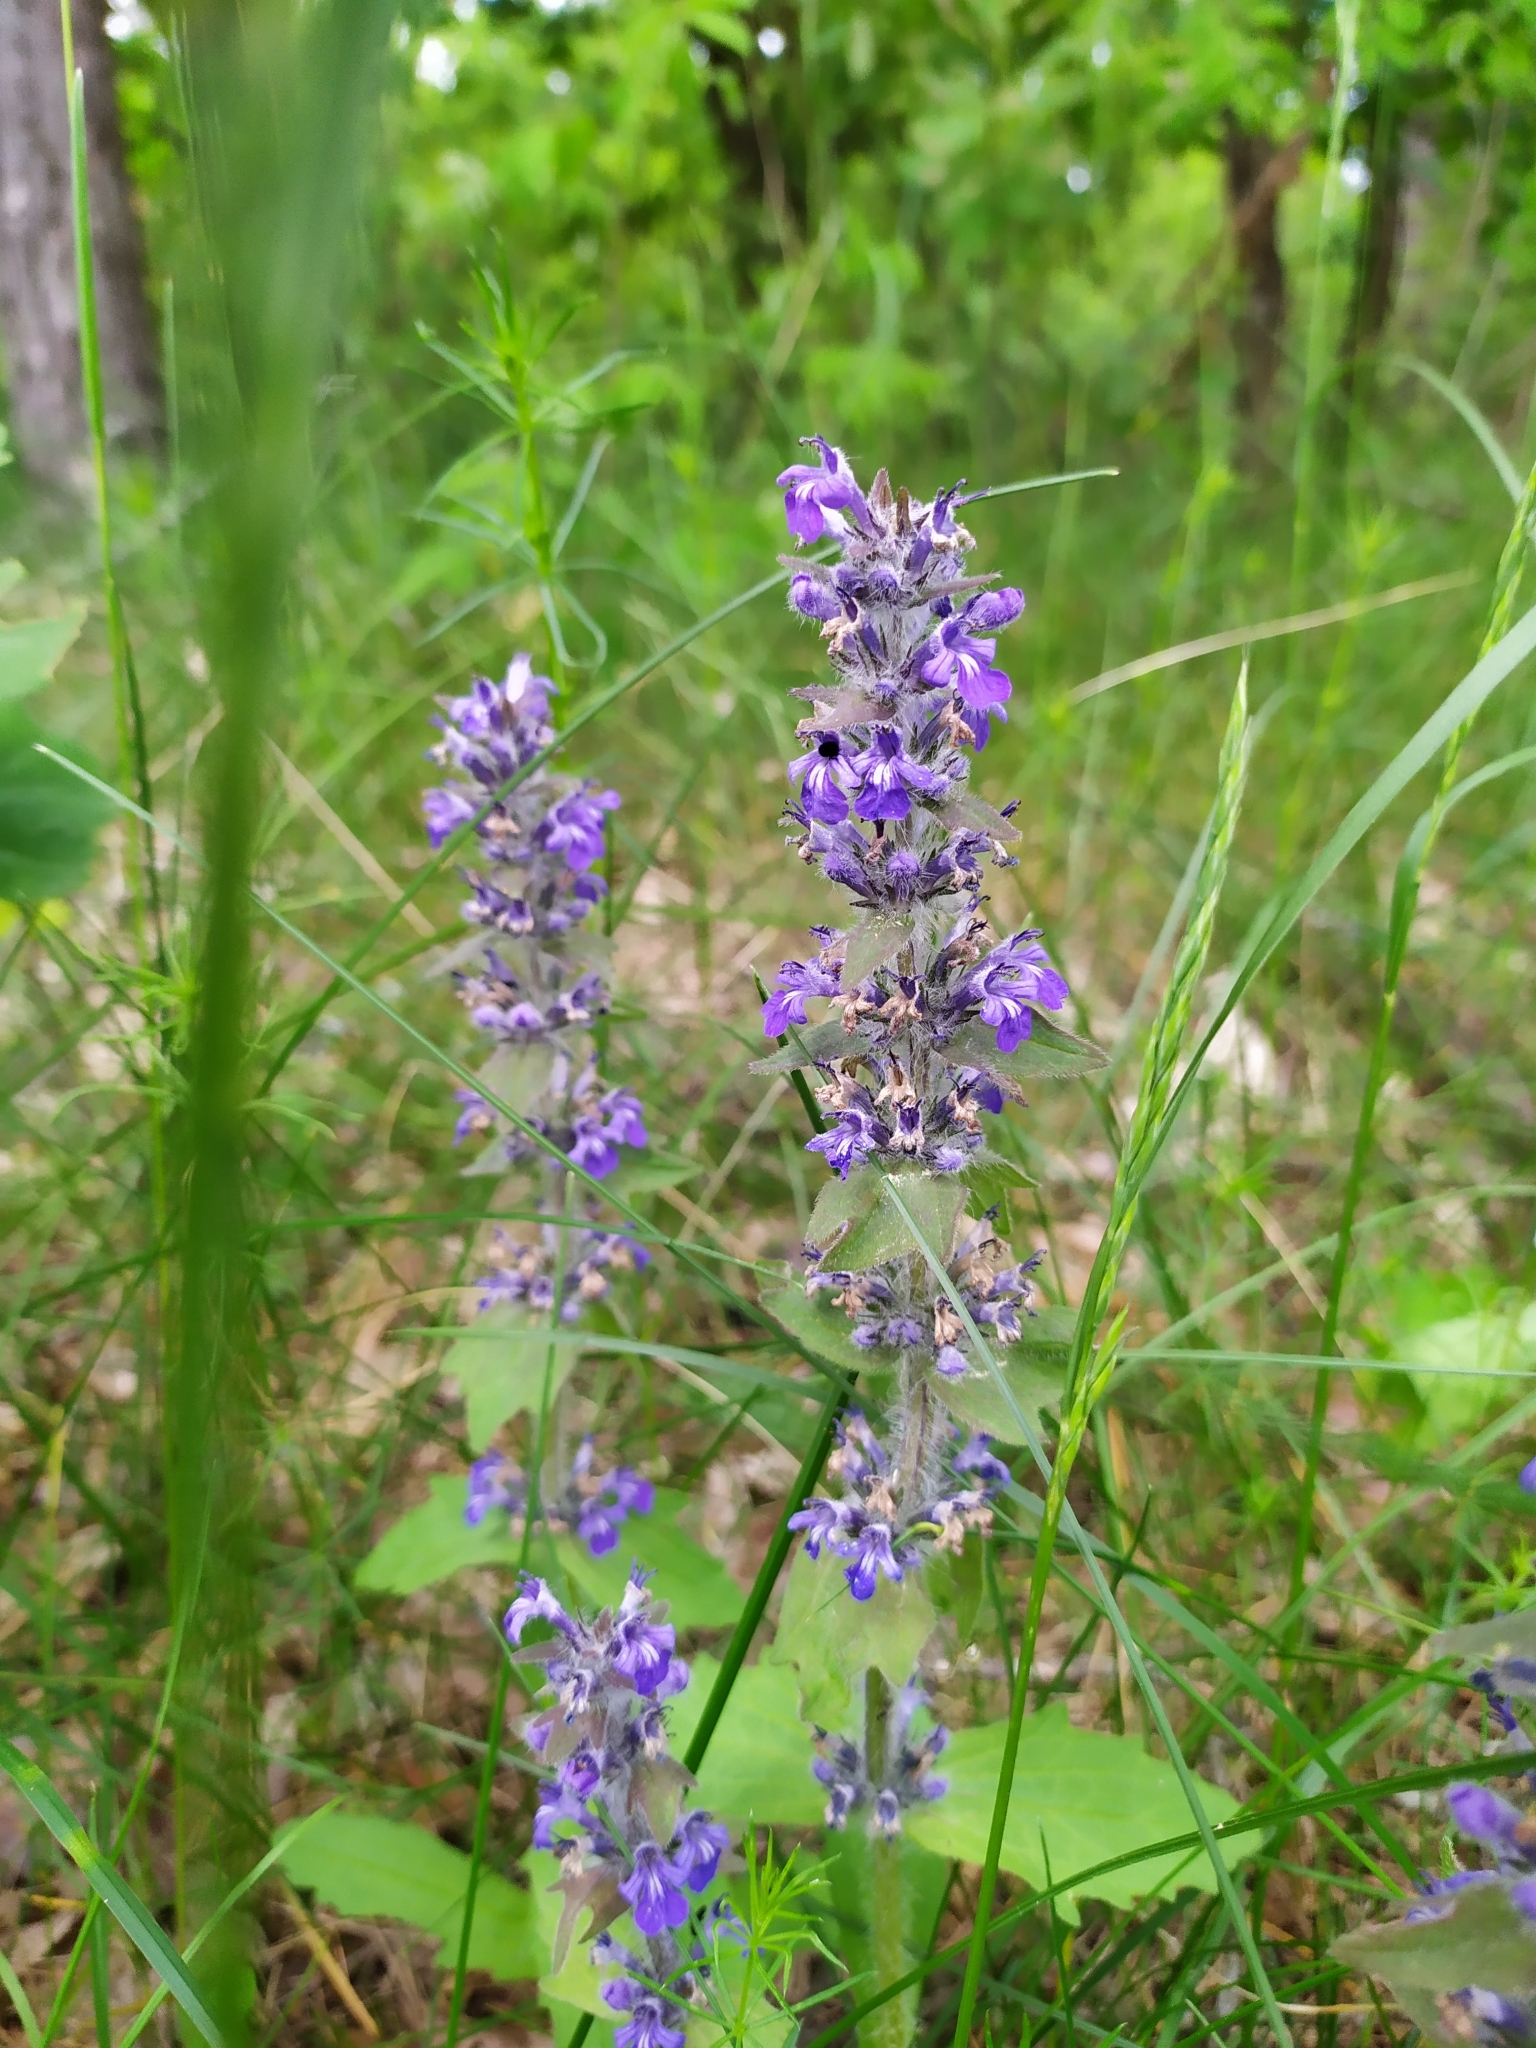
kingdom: Plantae
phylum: Tracheophyta
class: Magnoliopsida
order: Lamiales
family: Lamiaceae
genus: Ajuga
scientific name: Ajuga genevensis
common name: Blue bugle
